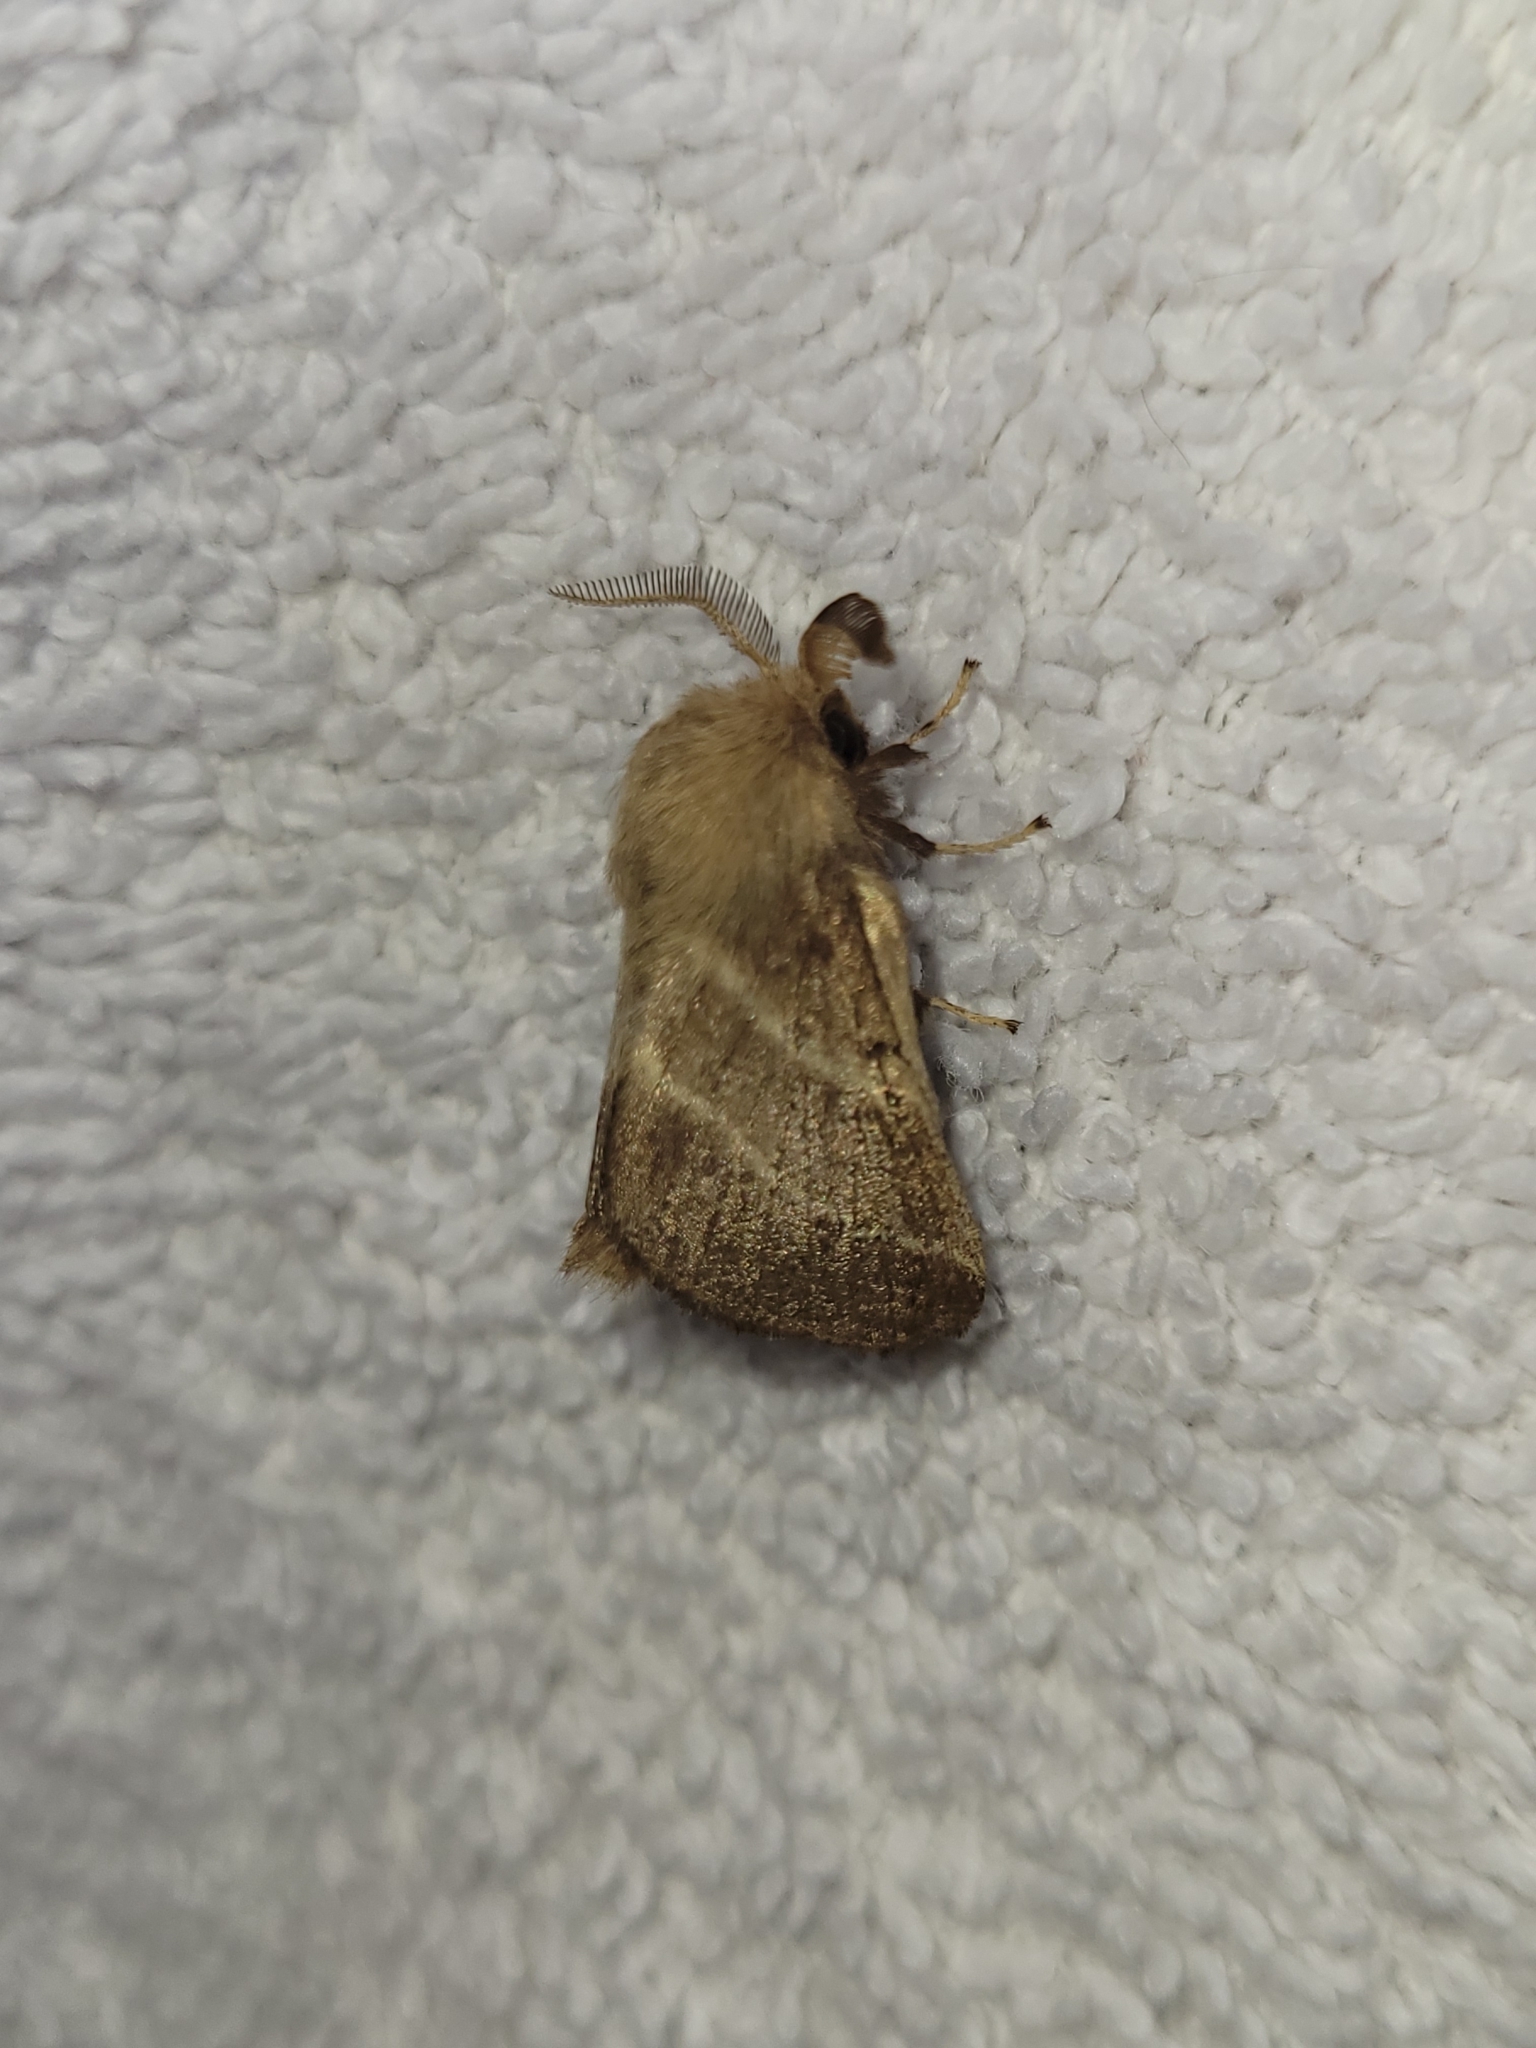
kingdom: Animalia
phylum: Arthropoda
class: Insecta
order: Lepidoptera
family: Lasiocampidae
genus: Malacosoma
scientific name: Malacosoma americana
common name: Eastern tent caterpillar moth
